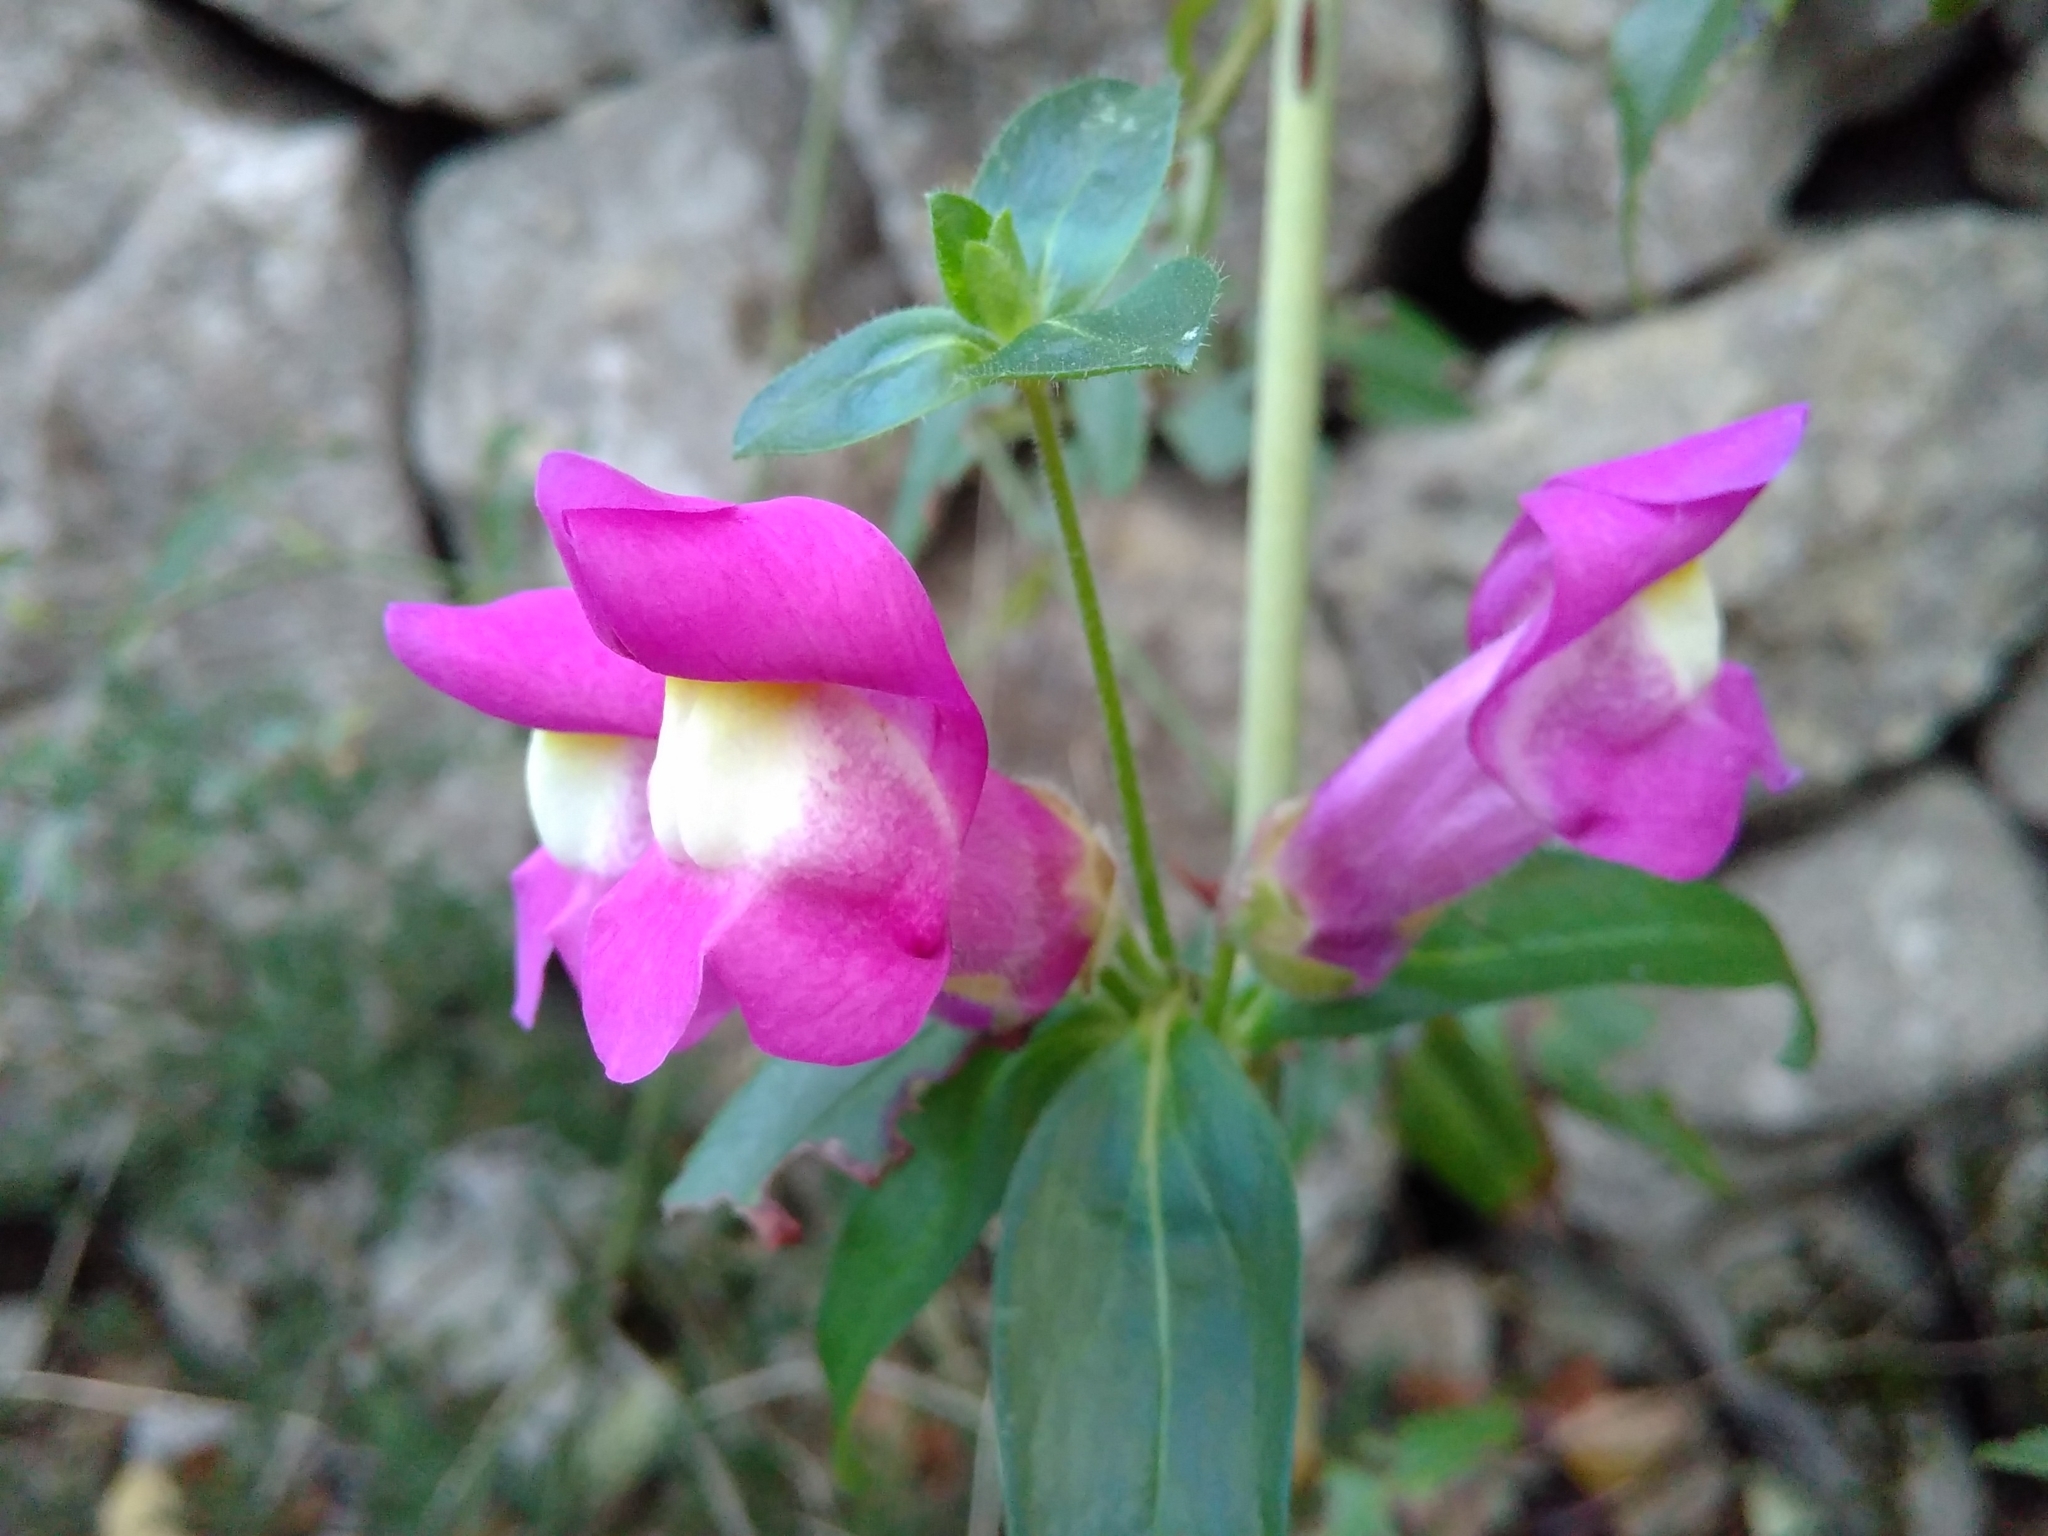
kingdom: Plantae
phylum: Tracheophyta
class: Magnoliopsida
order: Lamiales
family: Plantaginaceae
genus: Antirrhinum
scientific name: Antirrhinum majus
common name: Snapdragon
